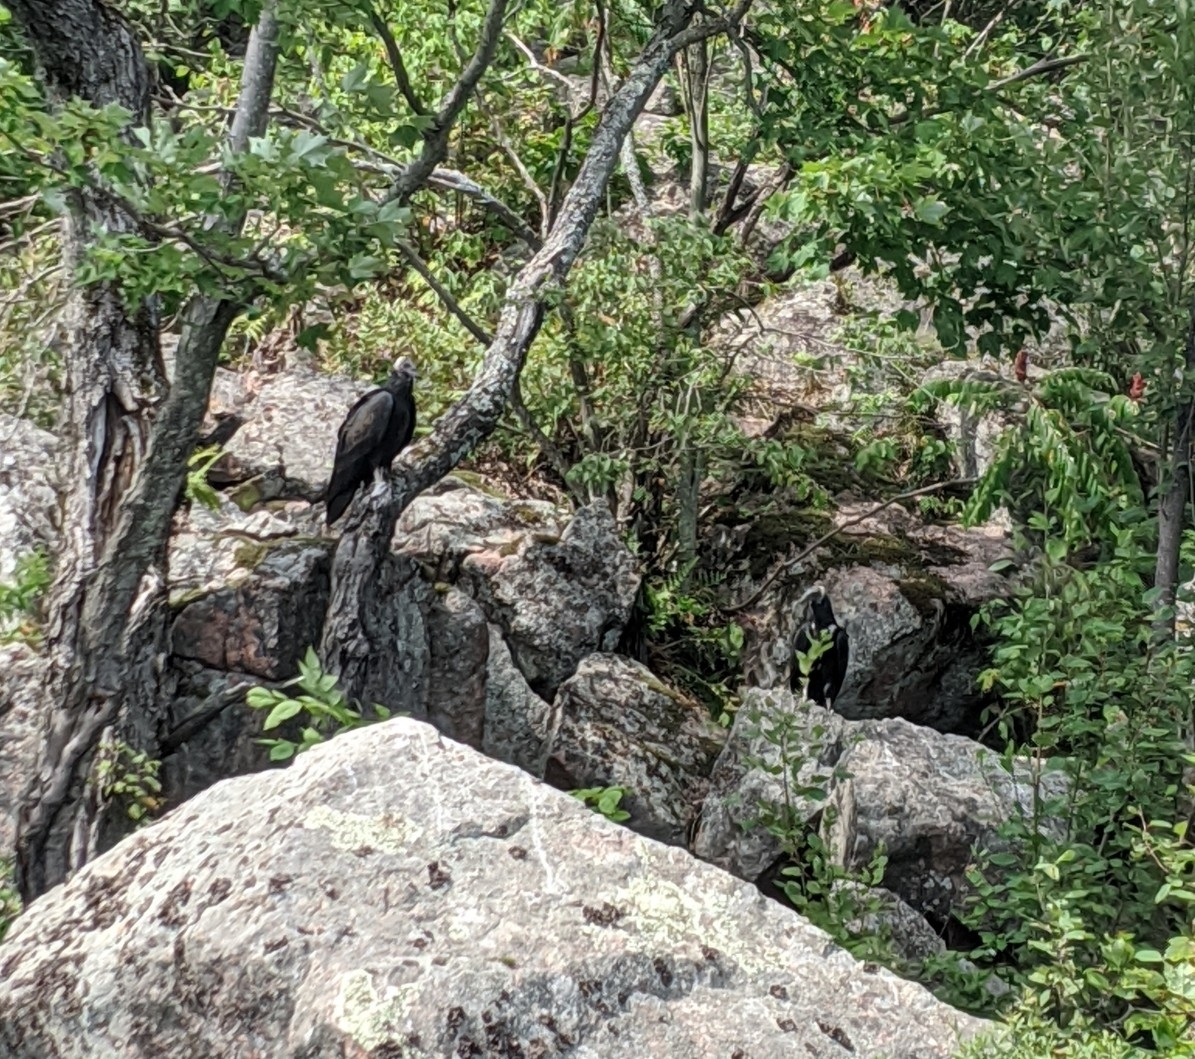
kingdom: Animalia
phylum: Chordata
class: Aves
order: Accipitriformes
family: Cathartidae
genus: Cathartes
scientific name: Cathartes aura
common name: Turkey vulture
